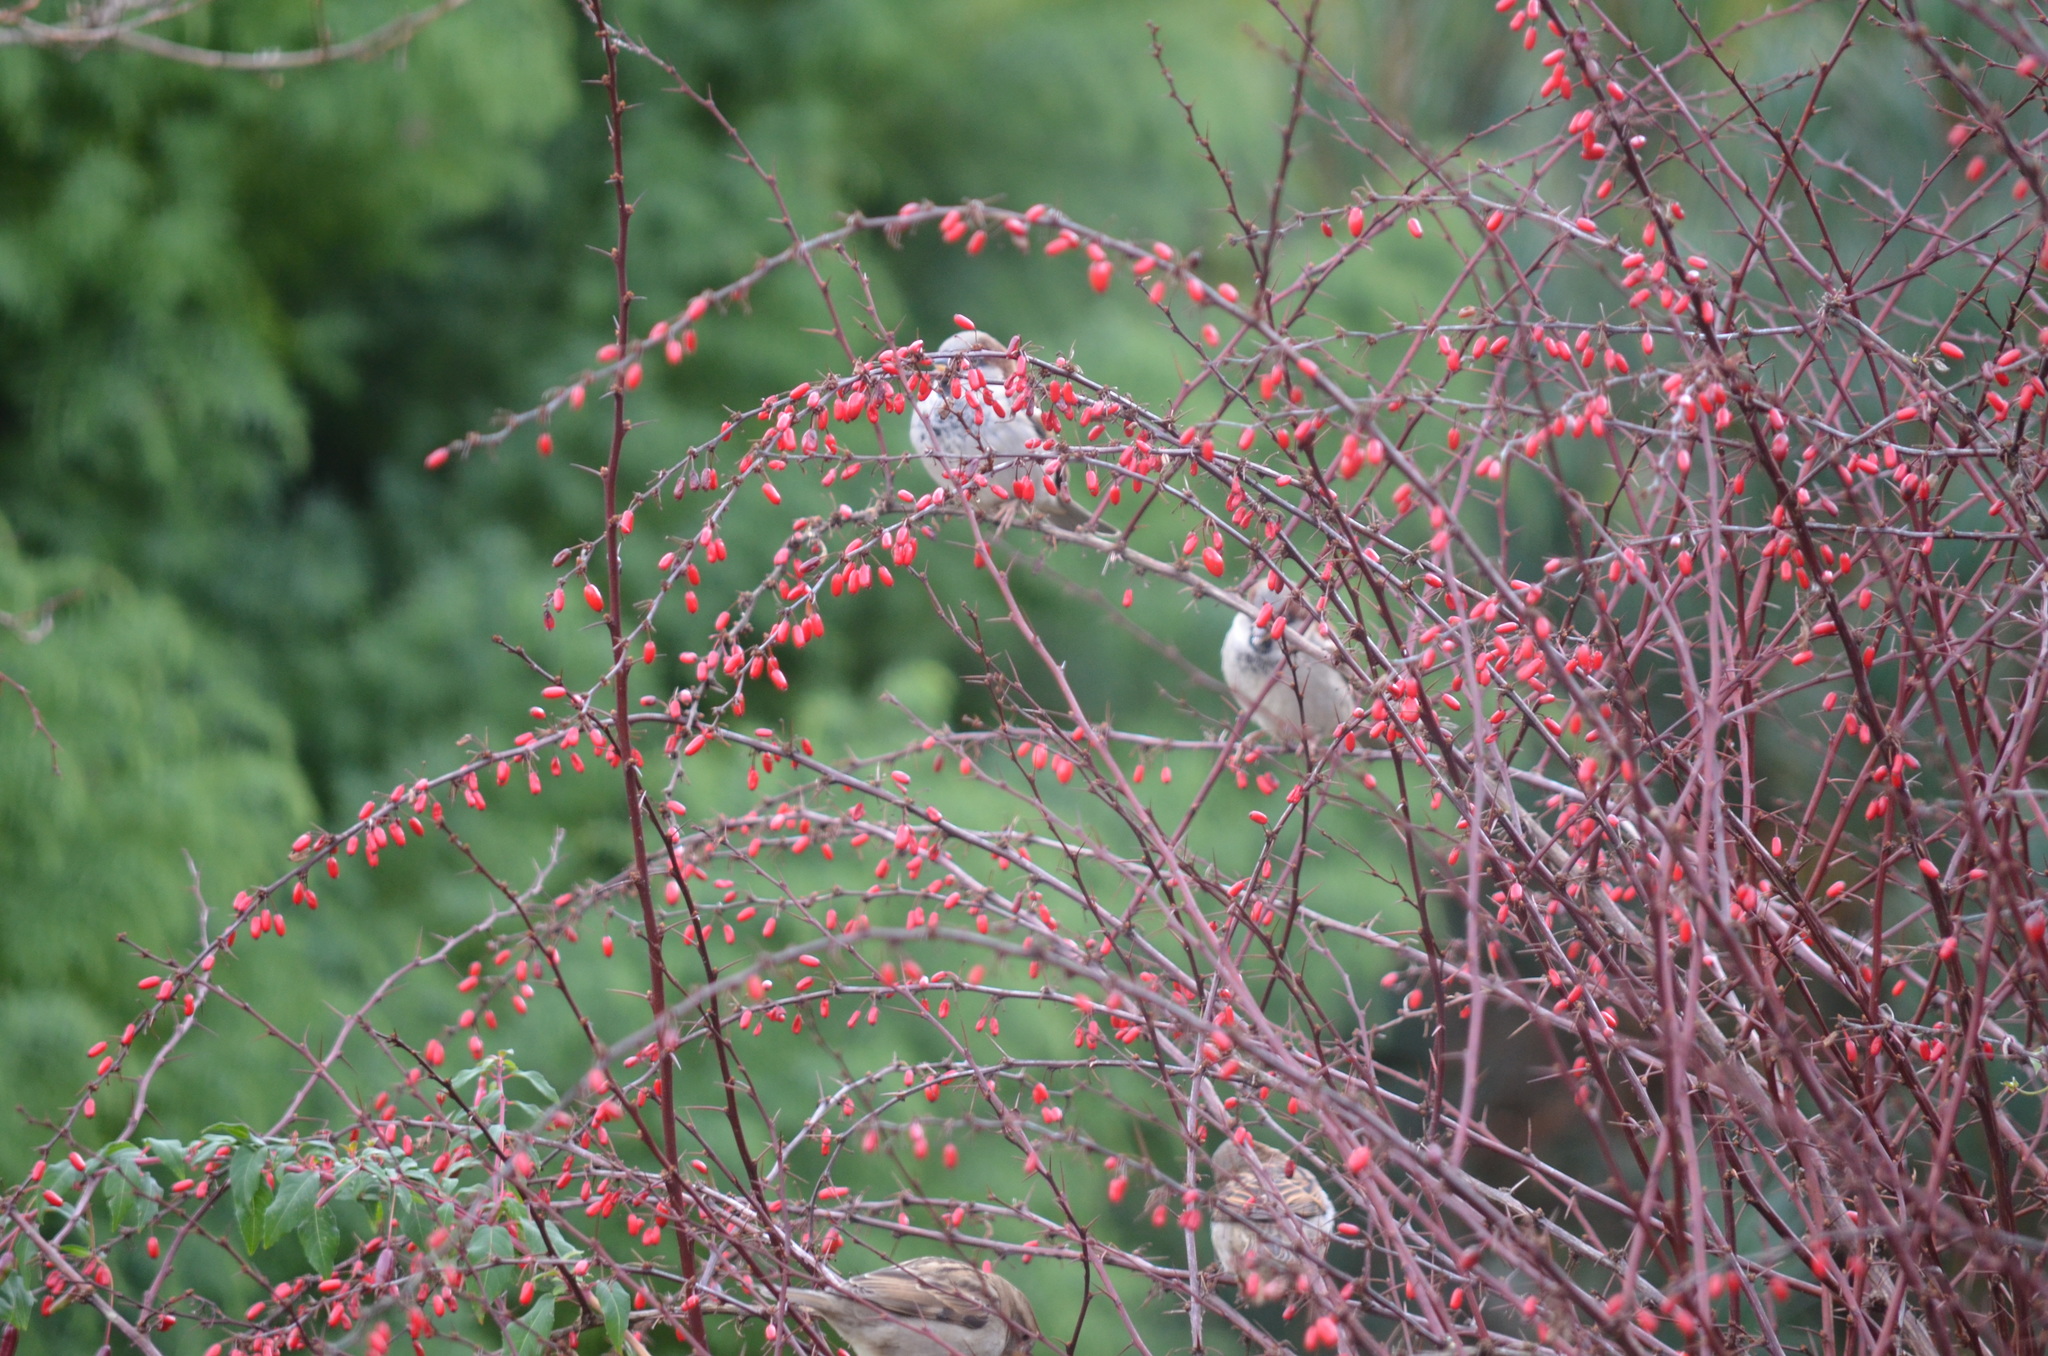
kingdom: Animalia
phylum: Chordata
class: Aves
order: Passeriformes
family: Passeridae
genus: Passer
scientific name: Passer domesticus
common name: House sparrow
